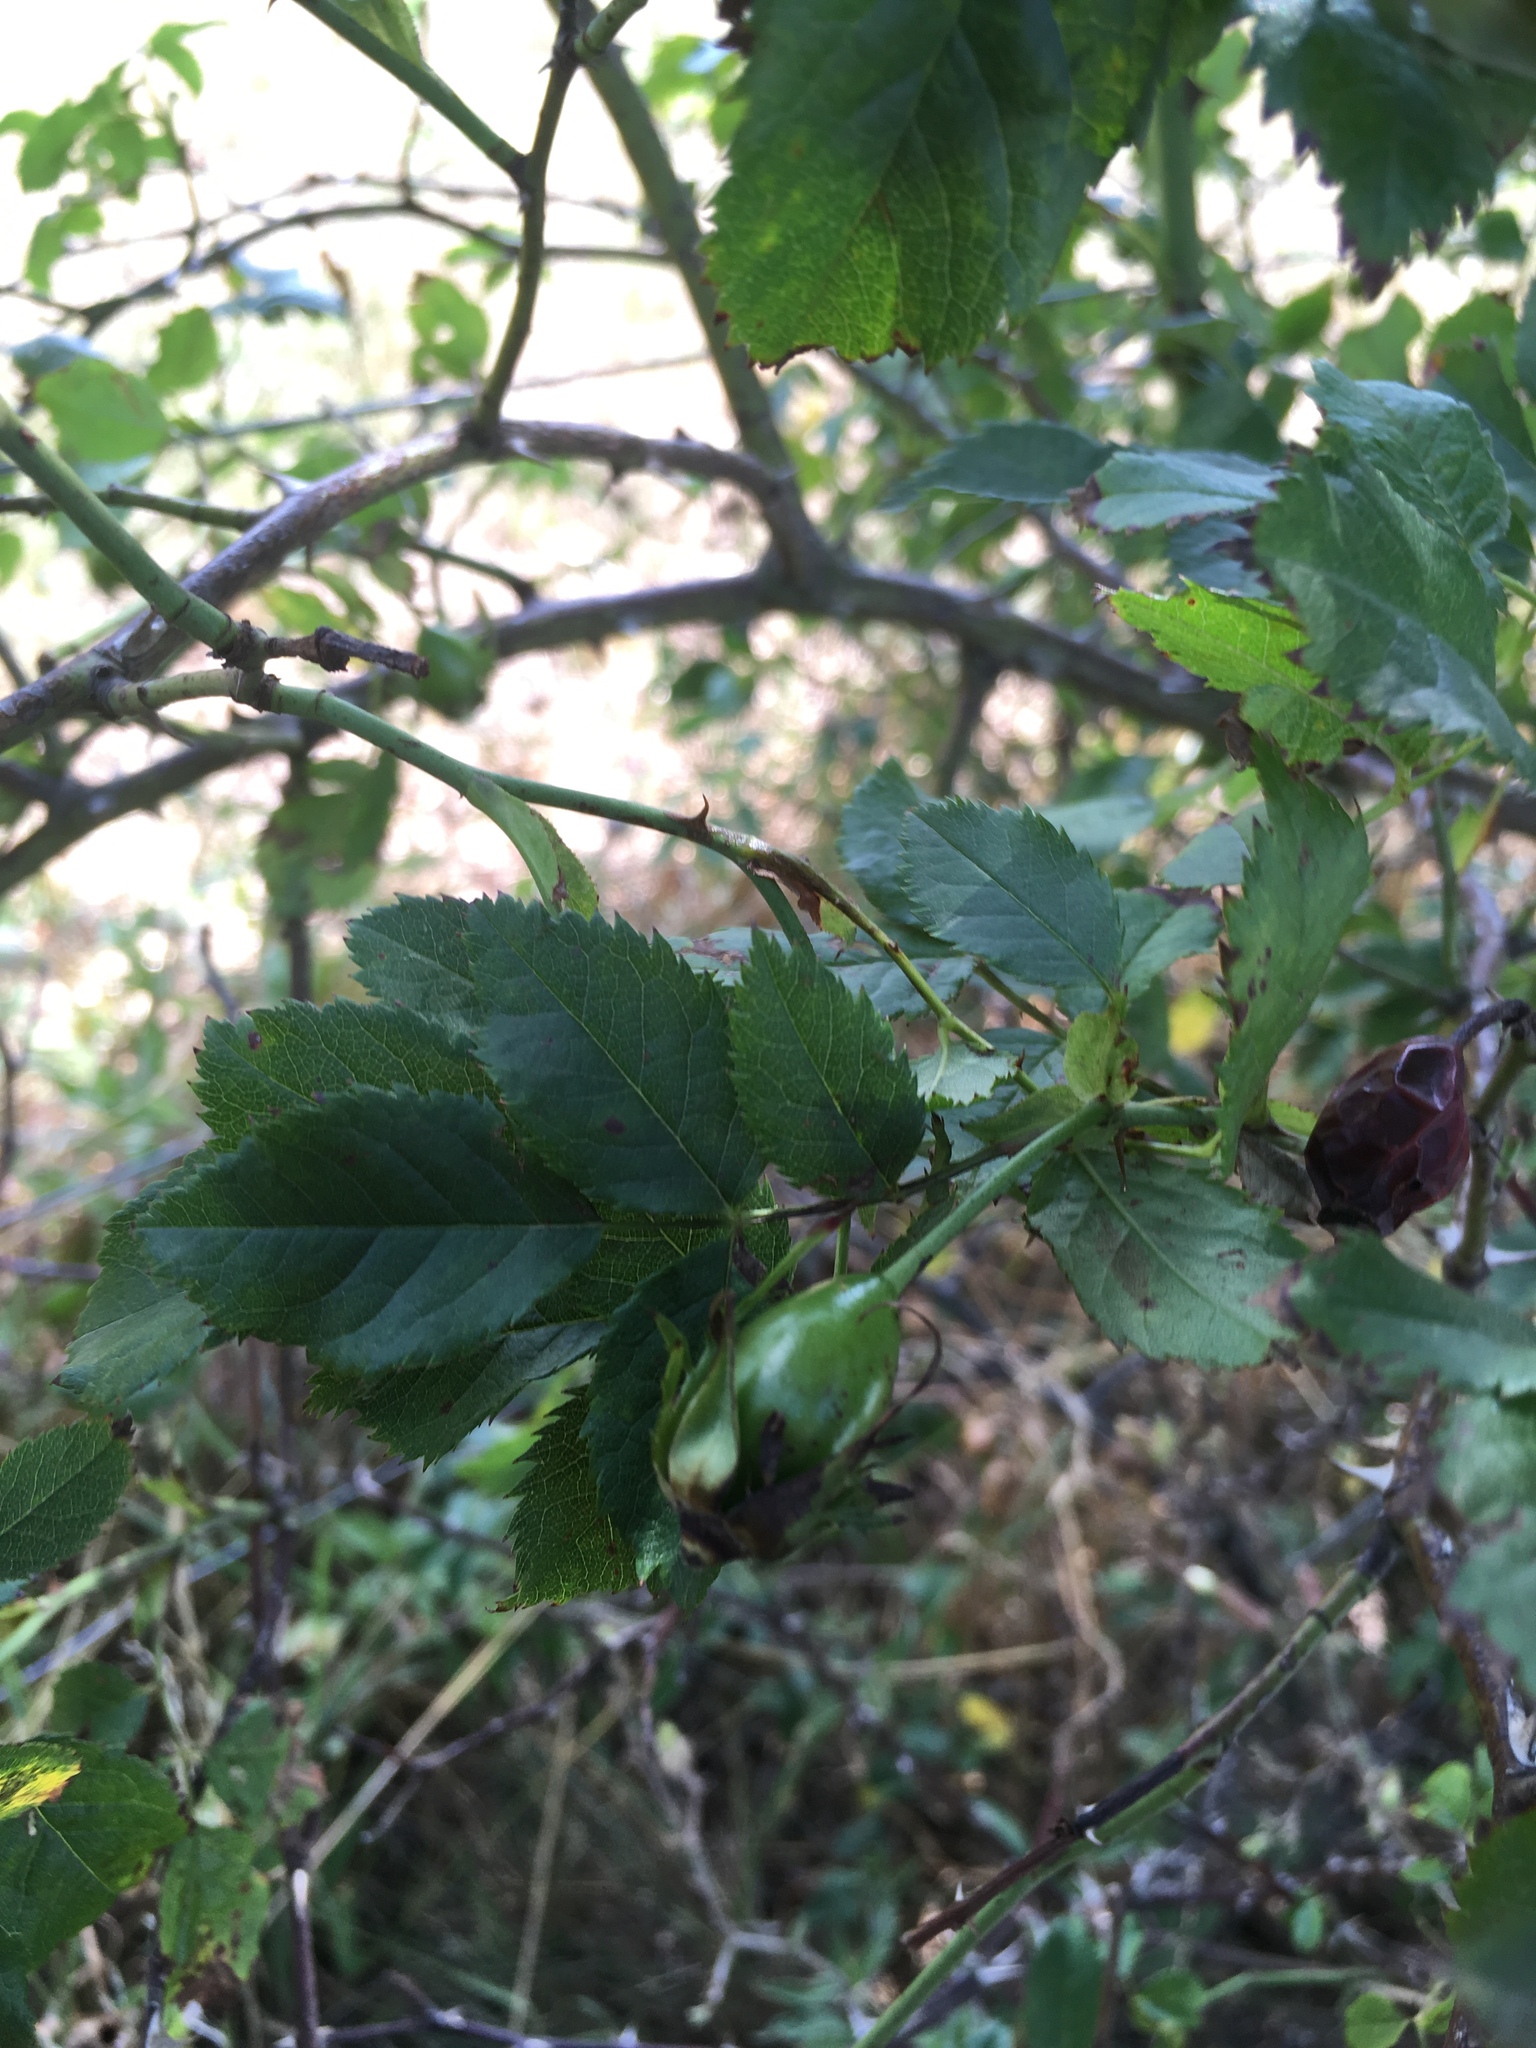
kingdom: Plantae
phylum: Tracheophyta
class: Magnoliopsida
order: Rosales
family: Rosaceae
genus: Rosa
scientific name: Rosa canina
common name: Dog rose
